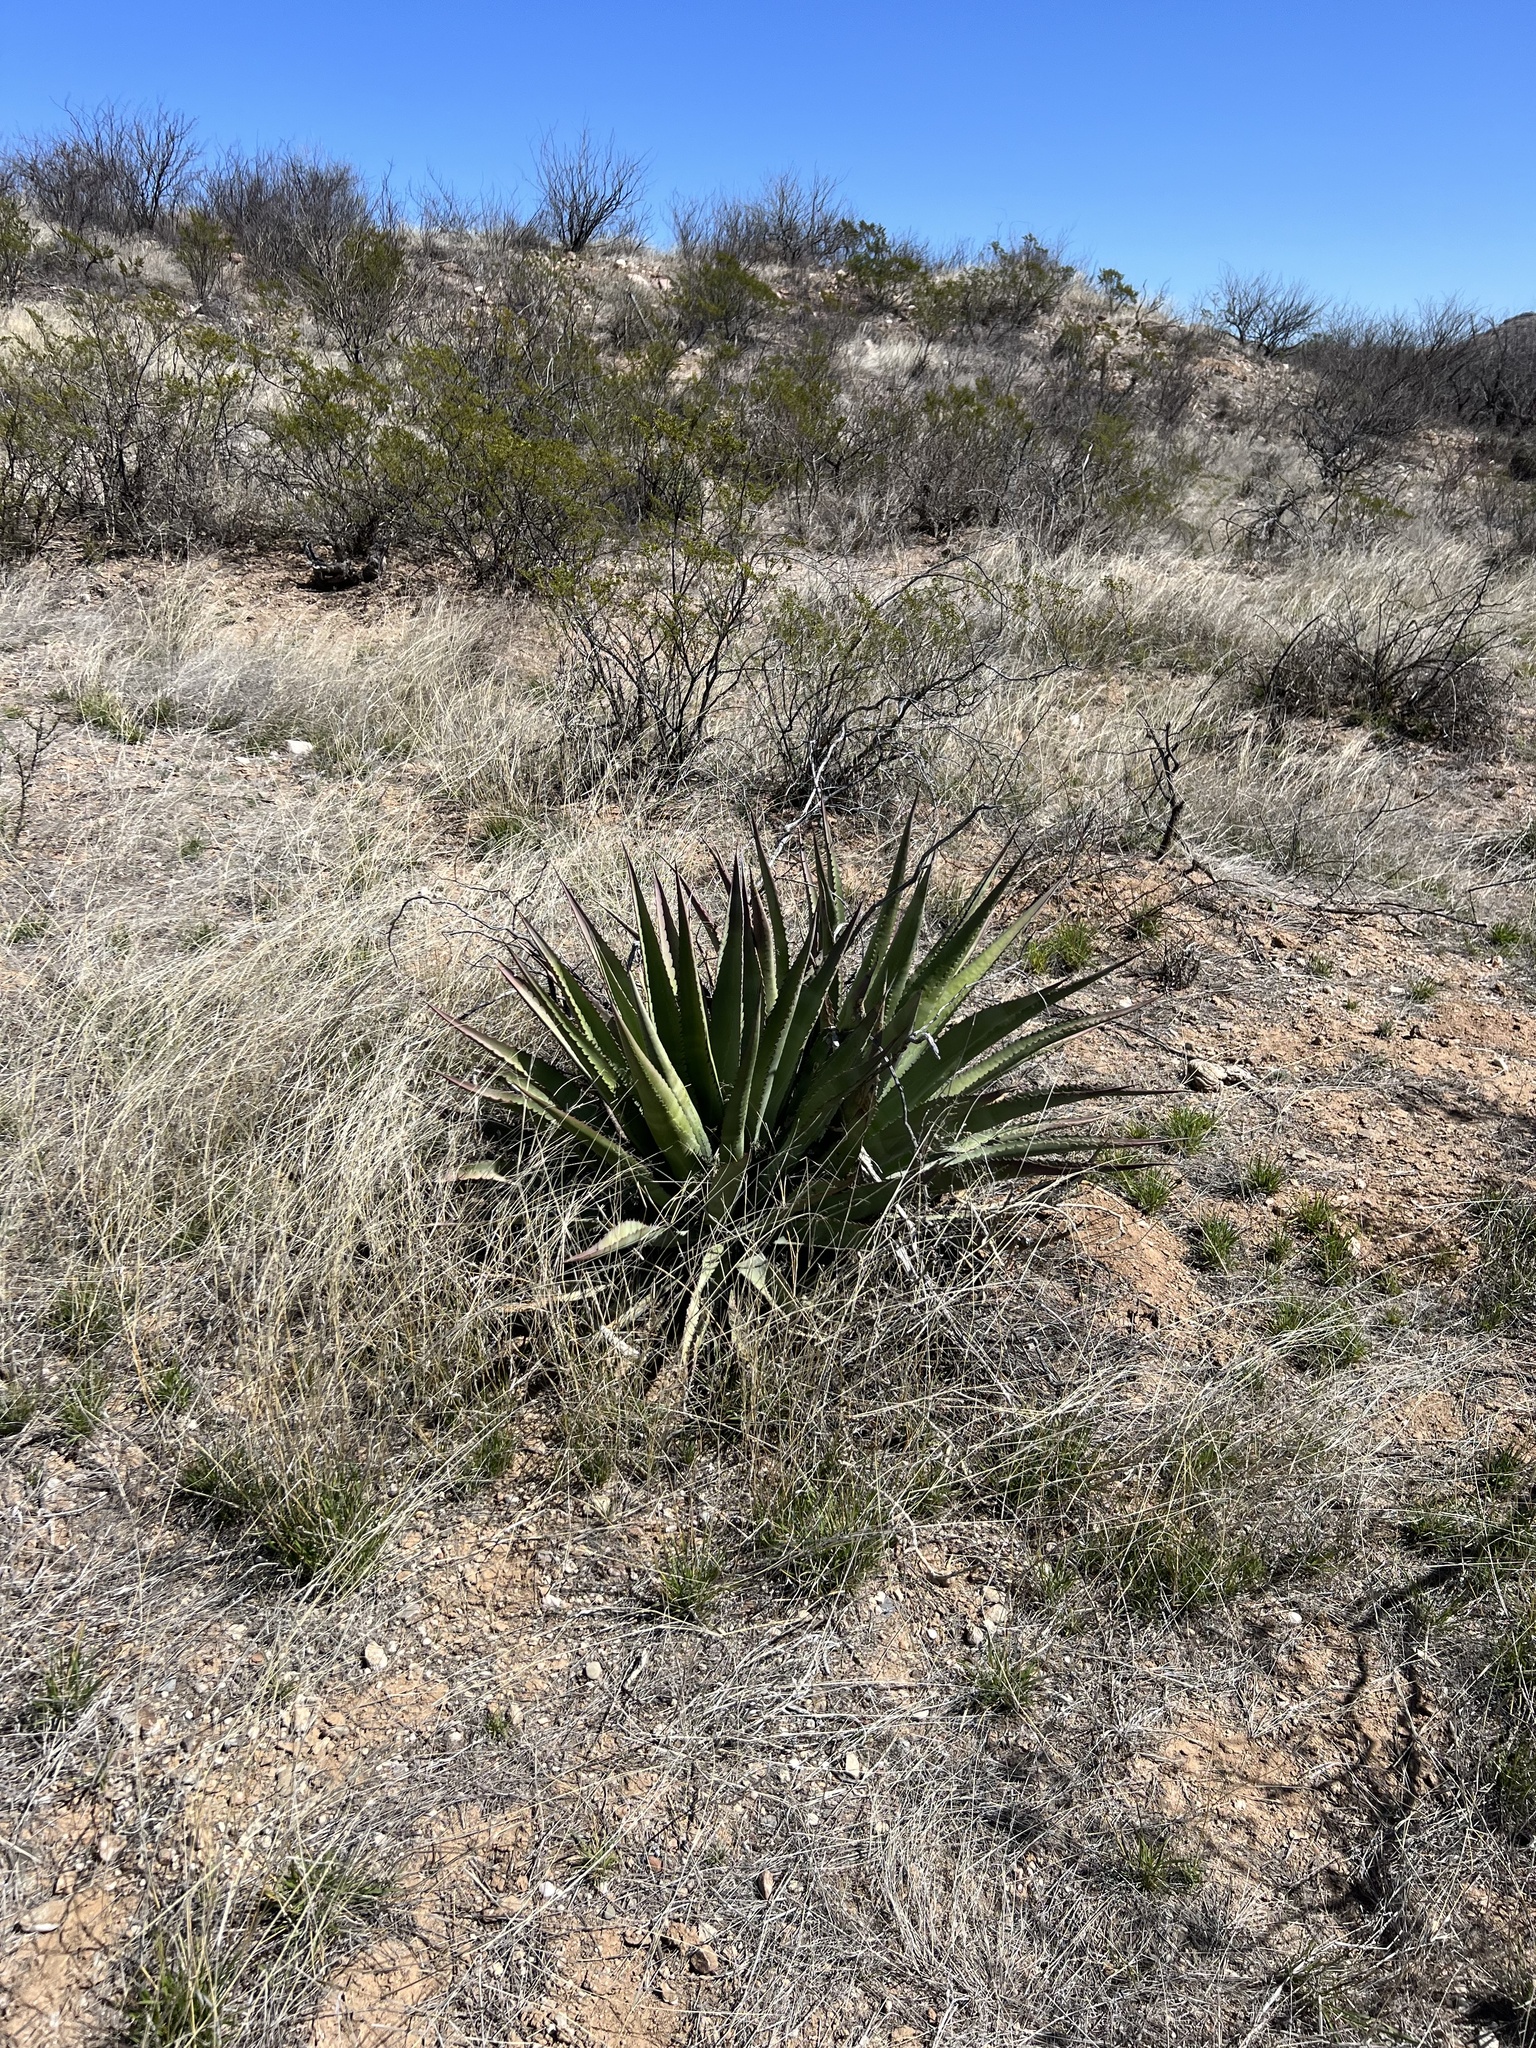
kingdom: Plantae
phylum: Tracheophyta
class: Liliopsida
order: Asparagales
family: Asparagaceae
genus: Agave
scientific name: Agave palmeri
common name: Palmer agave
